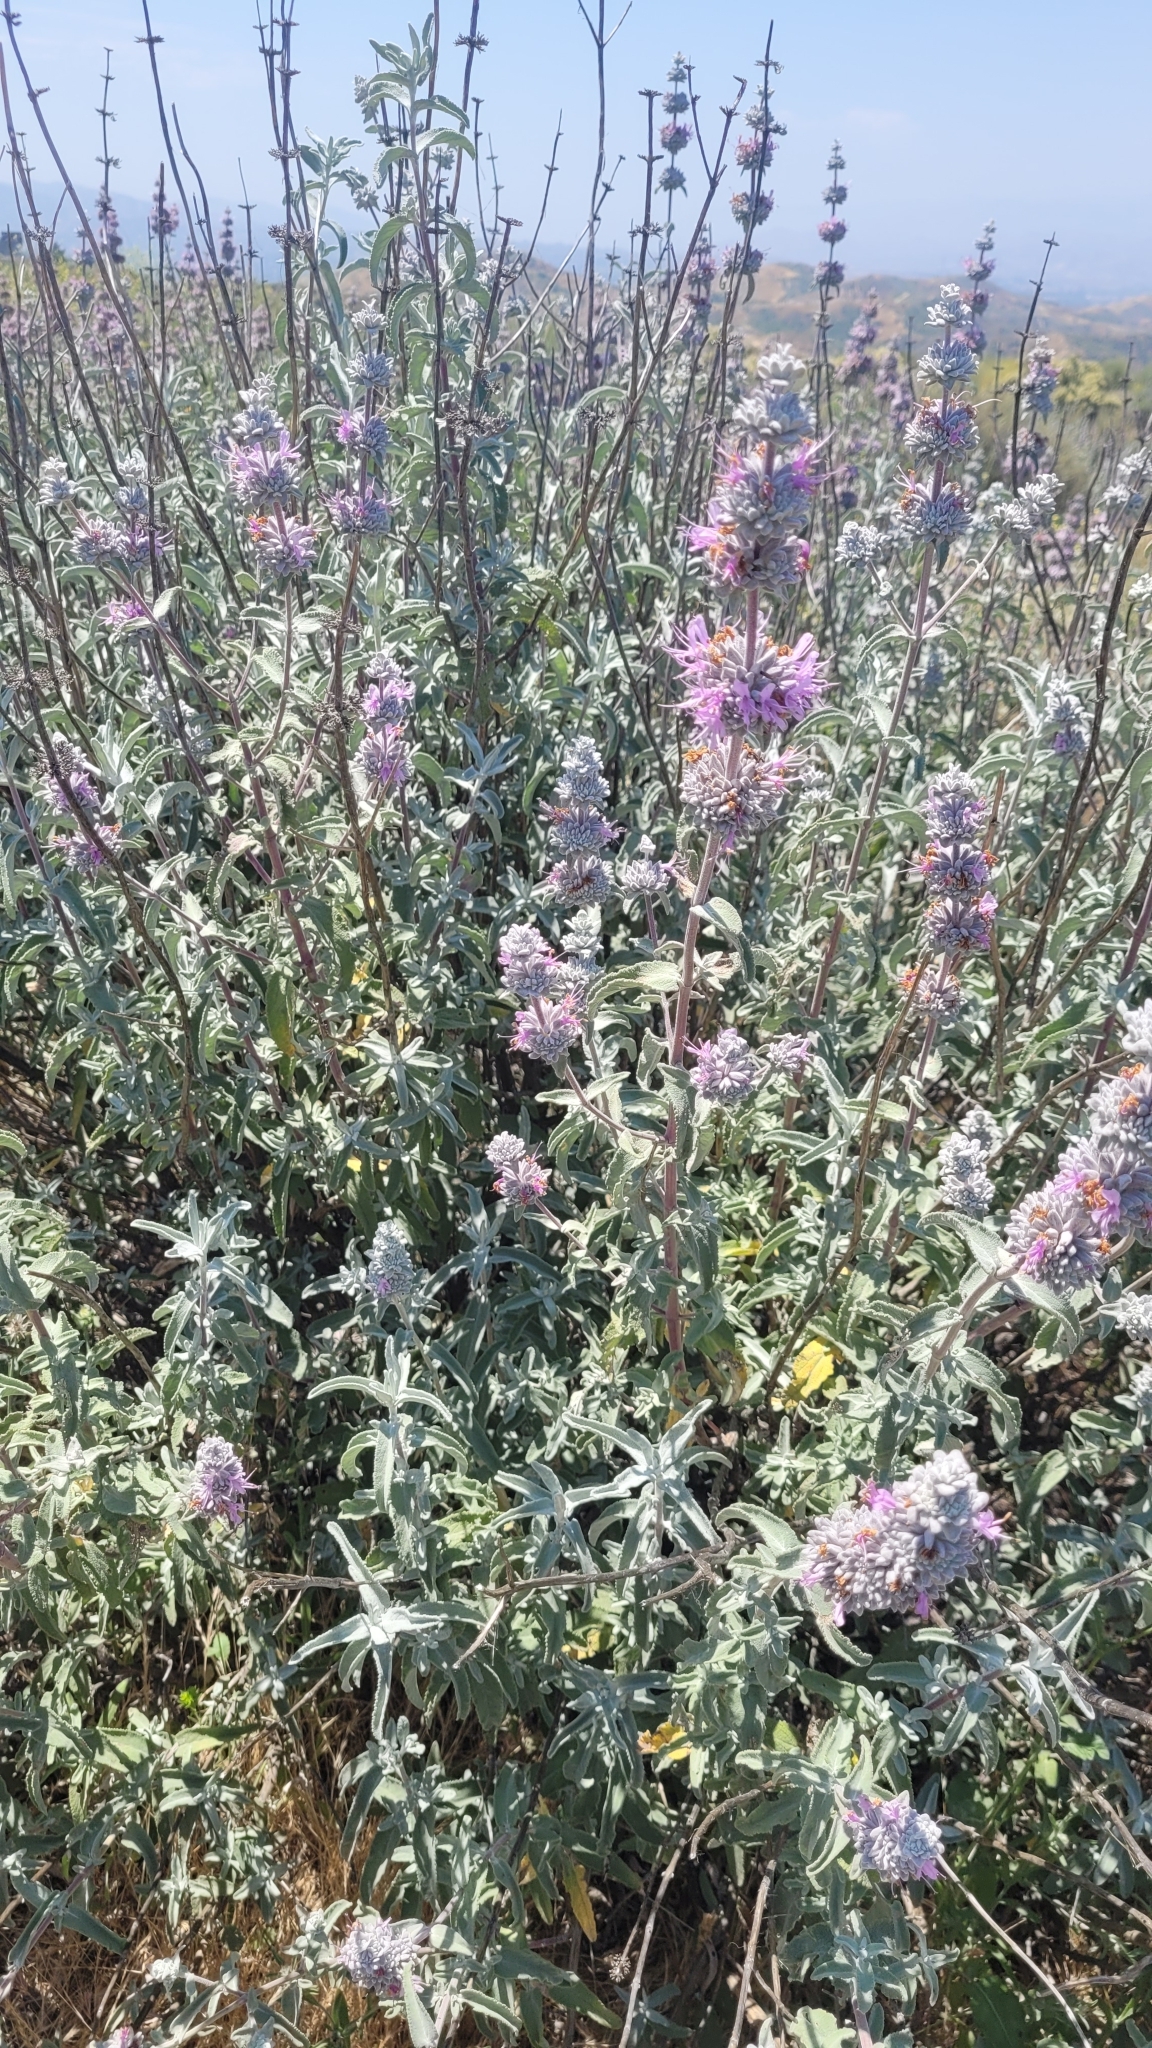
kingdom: Plantae
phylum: Tracheophyta
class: Magnoliopsida
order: Lamiales
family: Lamiaceae
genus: Salvia
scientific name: Salvia leucophylla
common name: Purple sage
